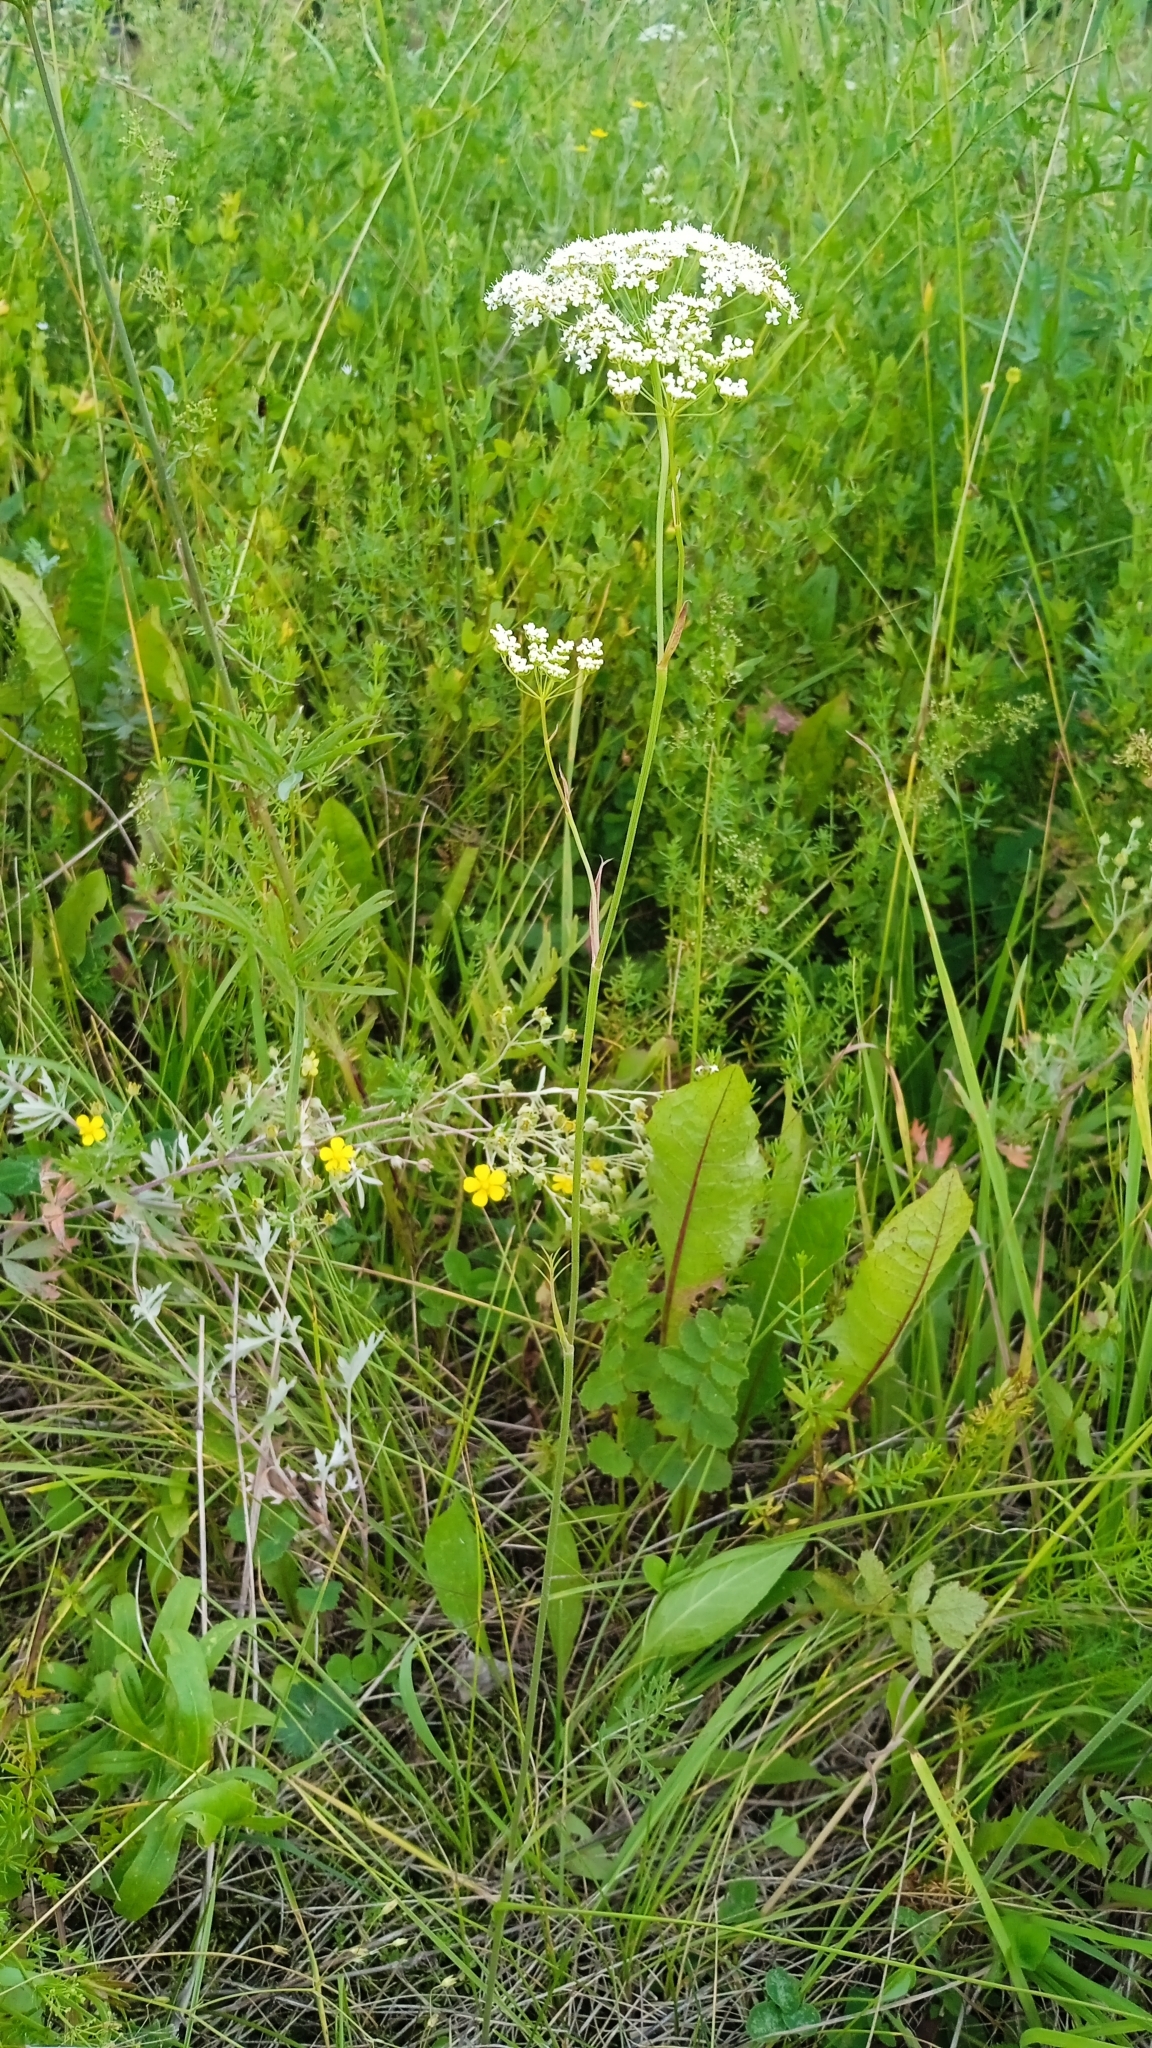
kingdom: Plantae
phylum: Tracheophyta
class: Magnoliopsida
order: Apiales
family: Apiaceae
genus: Pimpinella
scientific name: Pimpinella saxifraga
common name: Burnet-saxifrage
